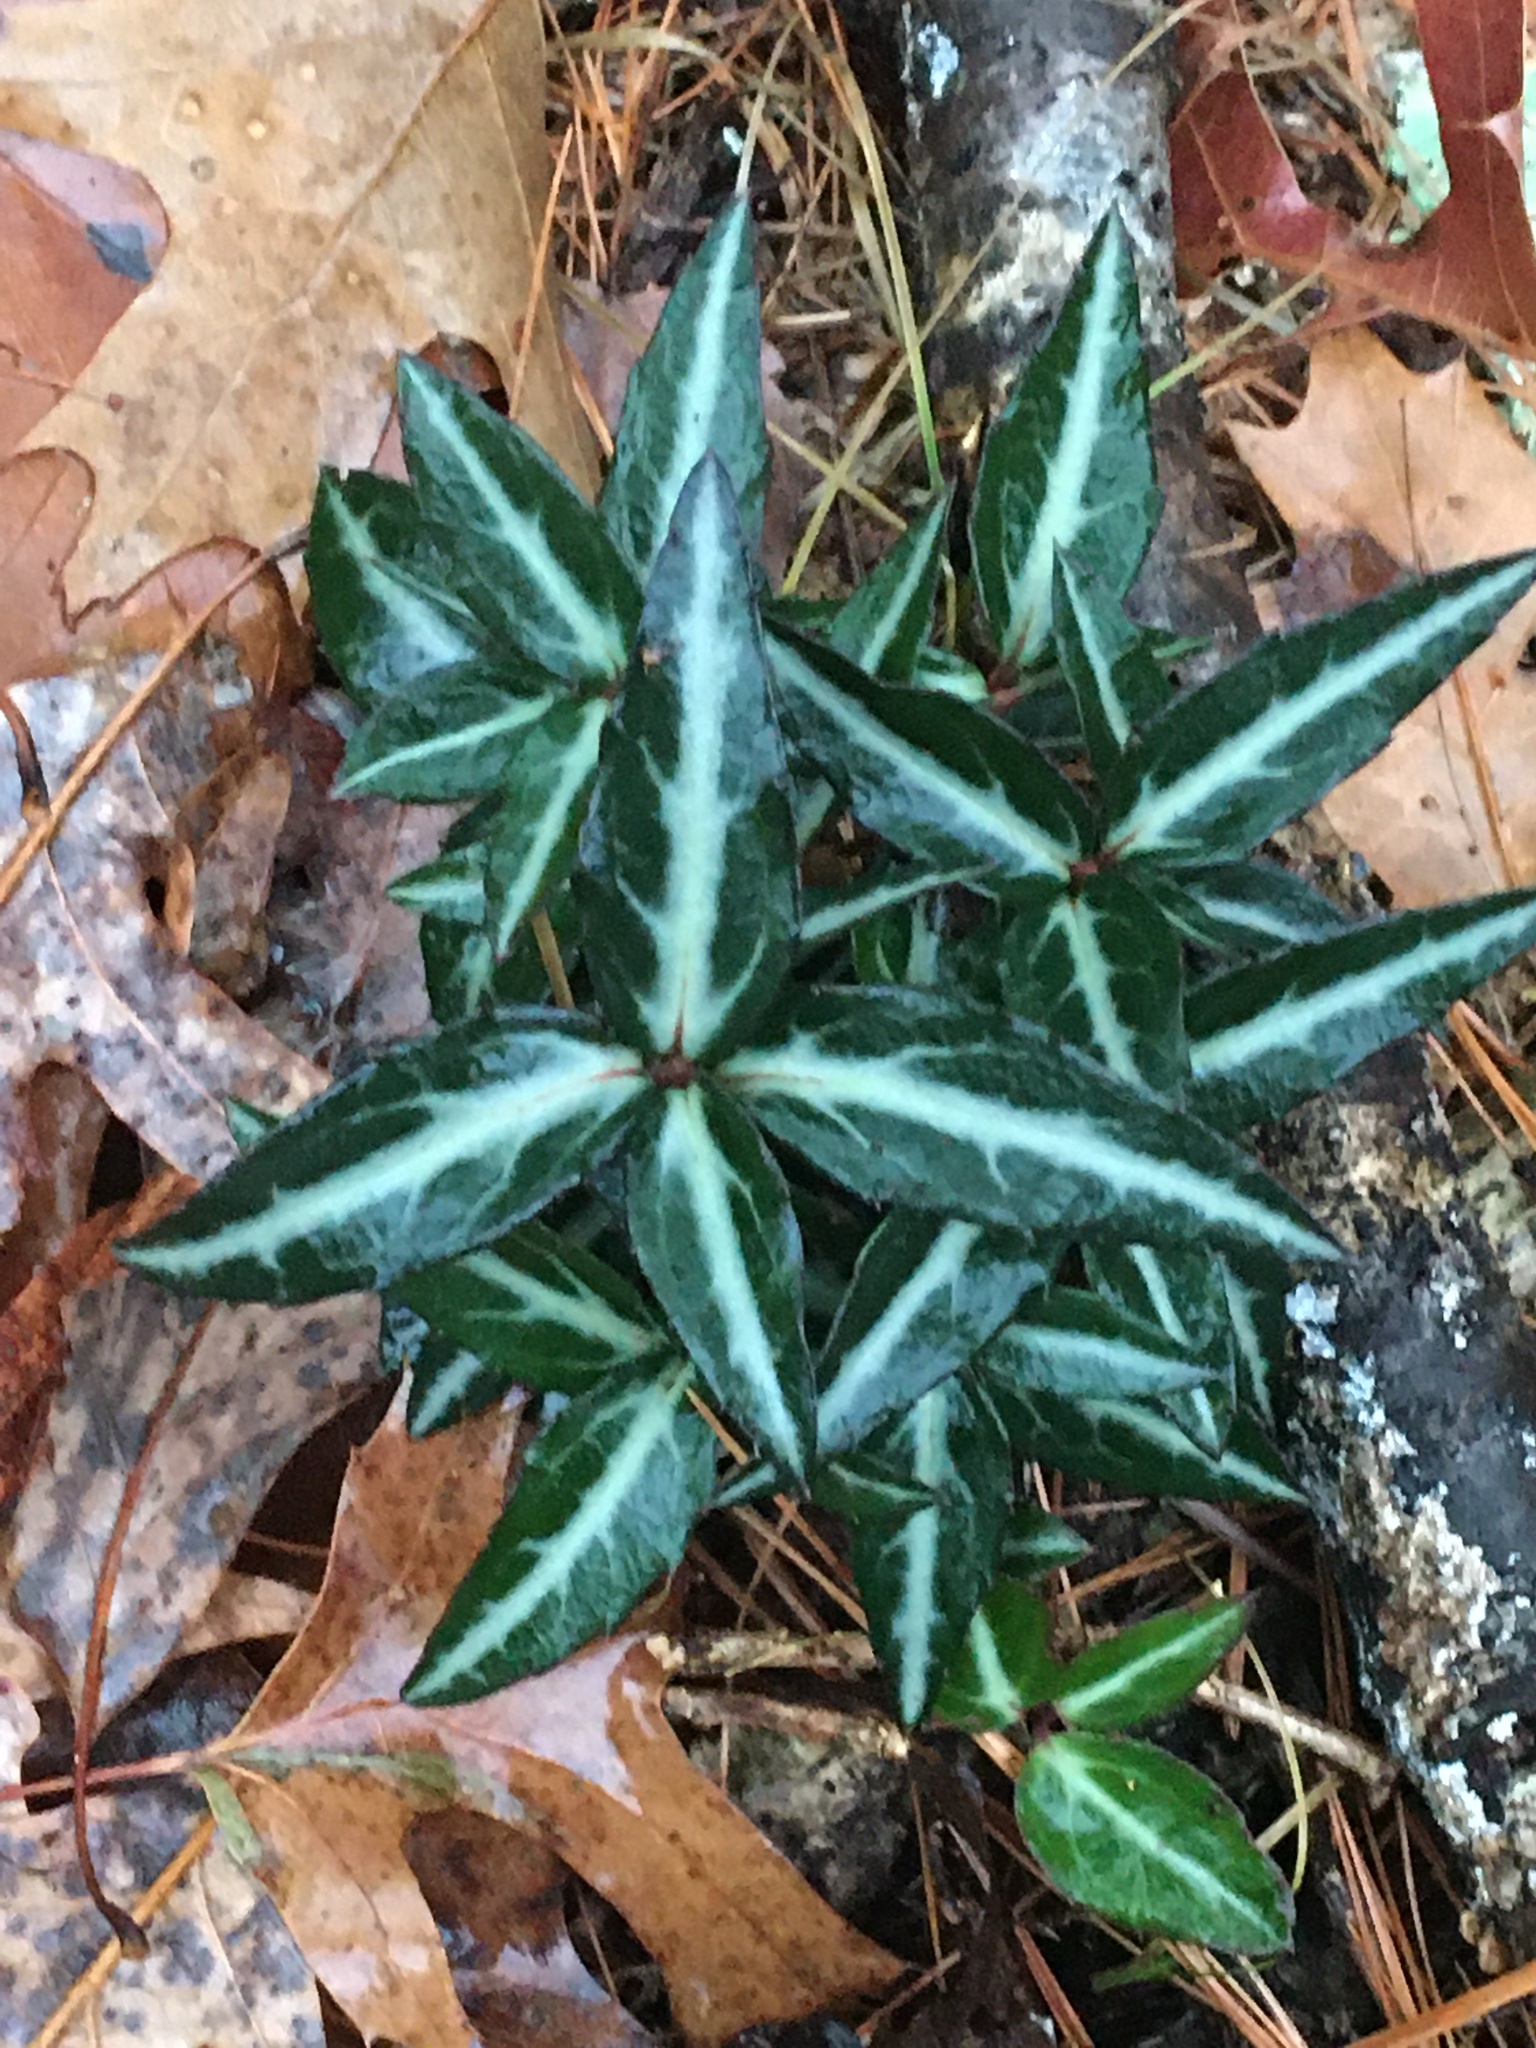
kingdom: Plantae
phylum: Tracheophyta
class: Magnoliopsida
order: Ericales
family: Ericaceae
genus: Chimaphila
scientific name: Chimaphila maculata
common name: Spotted pipsissewa
